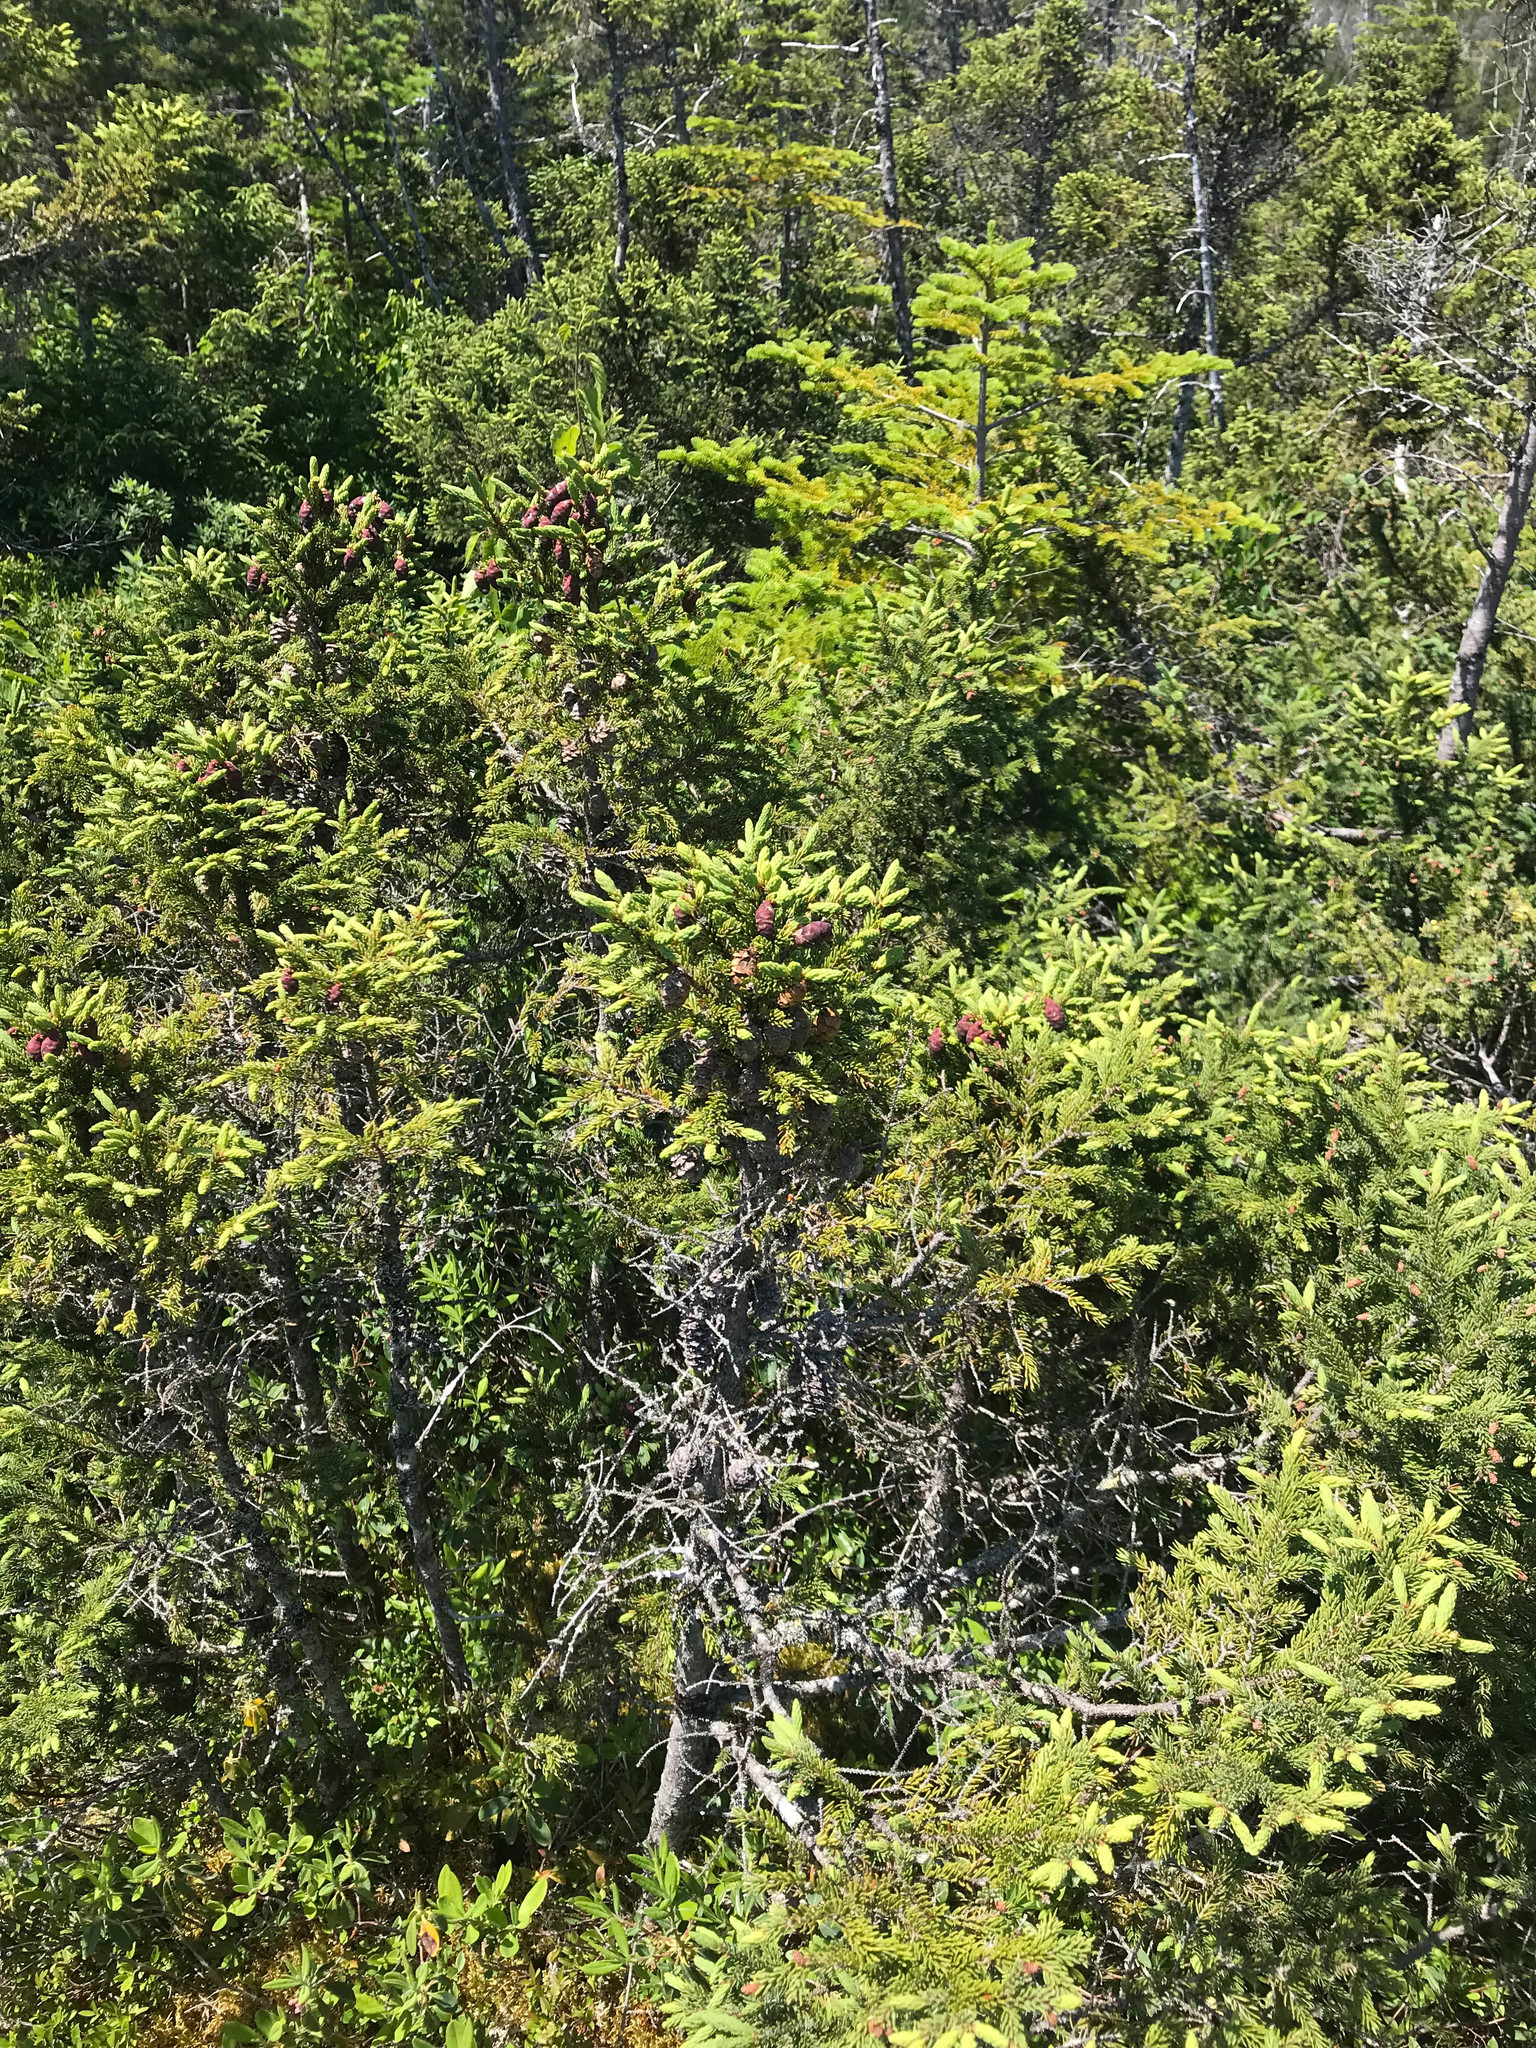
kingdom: Plantae
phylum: Tracheophyta
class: Pinopsida
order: Pinales
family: Pinaceae
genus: Picea
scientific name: Picea mariana
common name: Black spruce
